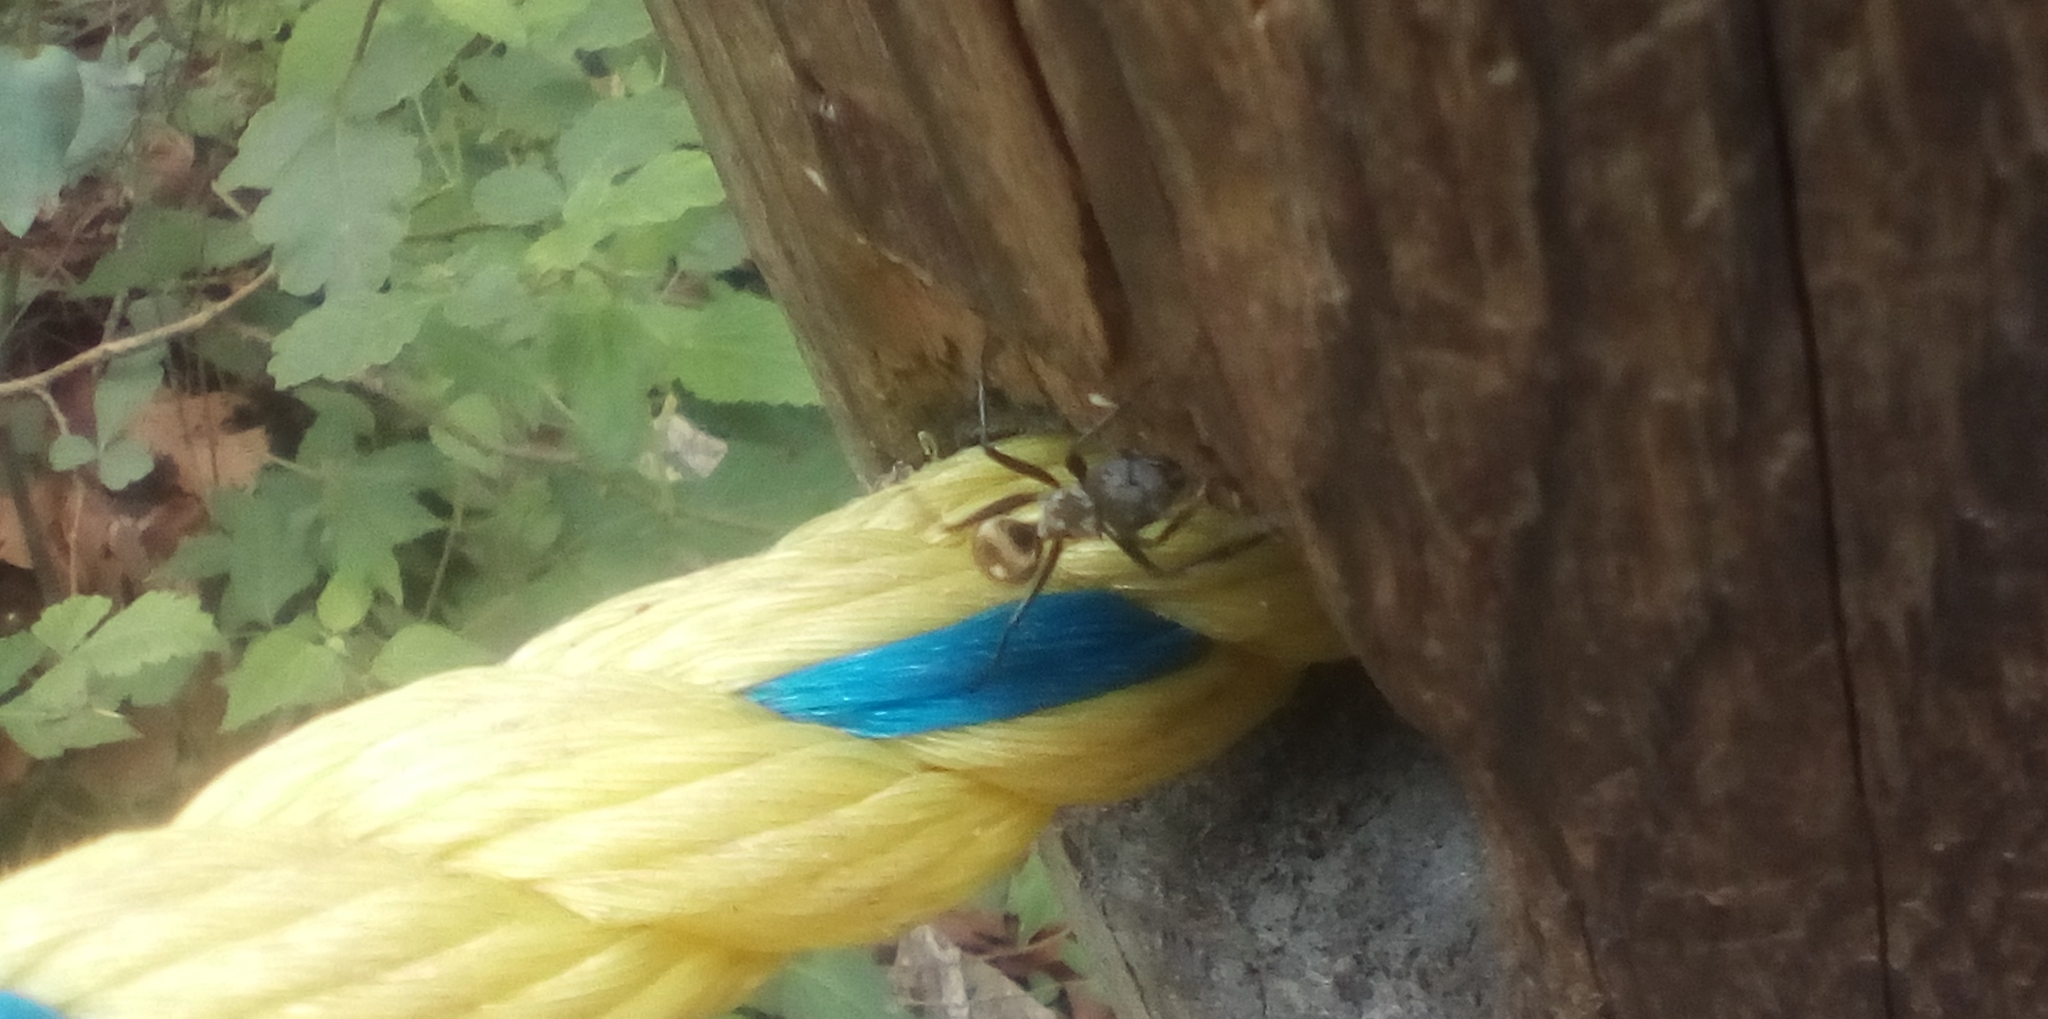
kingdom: Animalia
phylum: Arthropoda
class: Insecta
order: Hymenoptera
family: Formicidae
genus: Camponotus
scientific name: Camponotus sericeiventris
